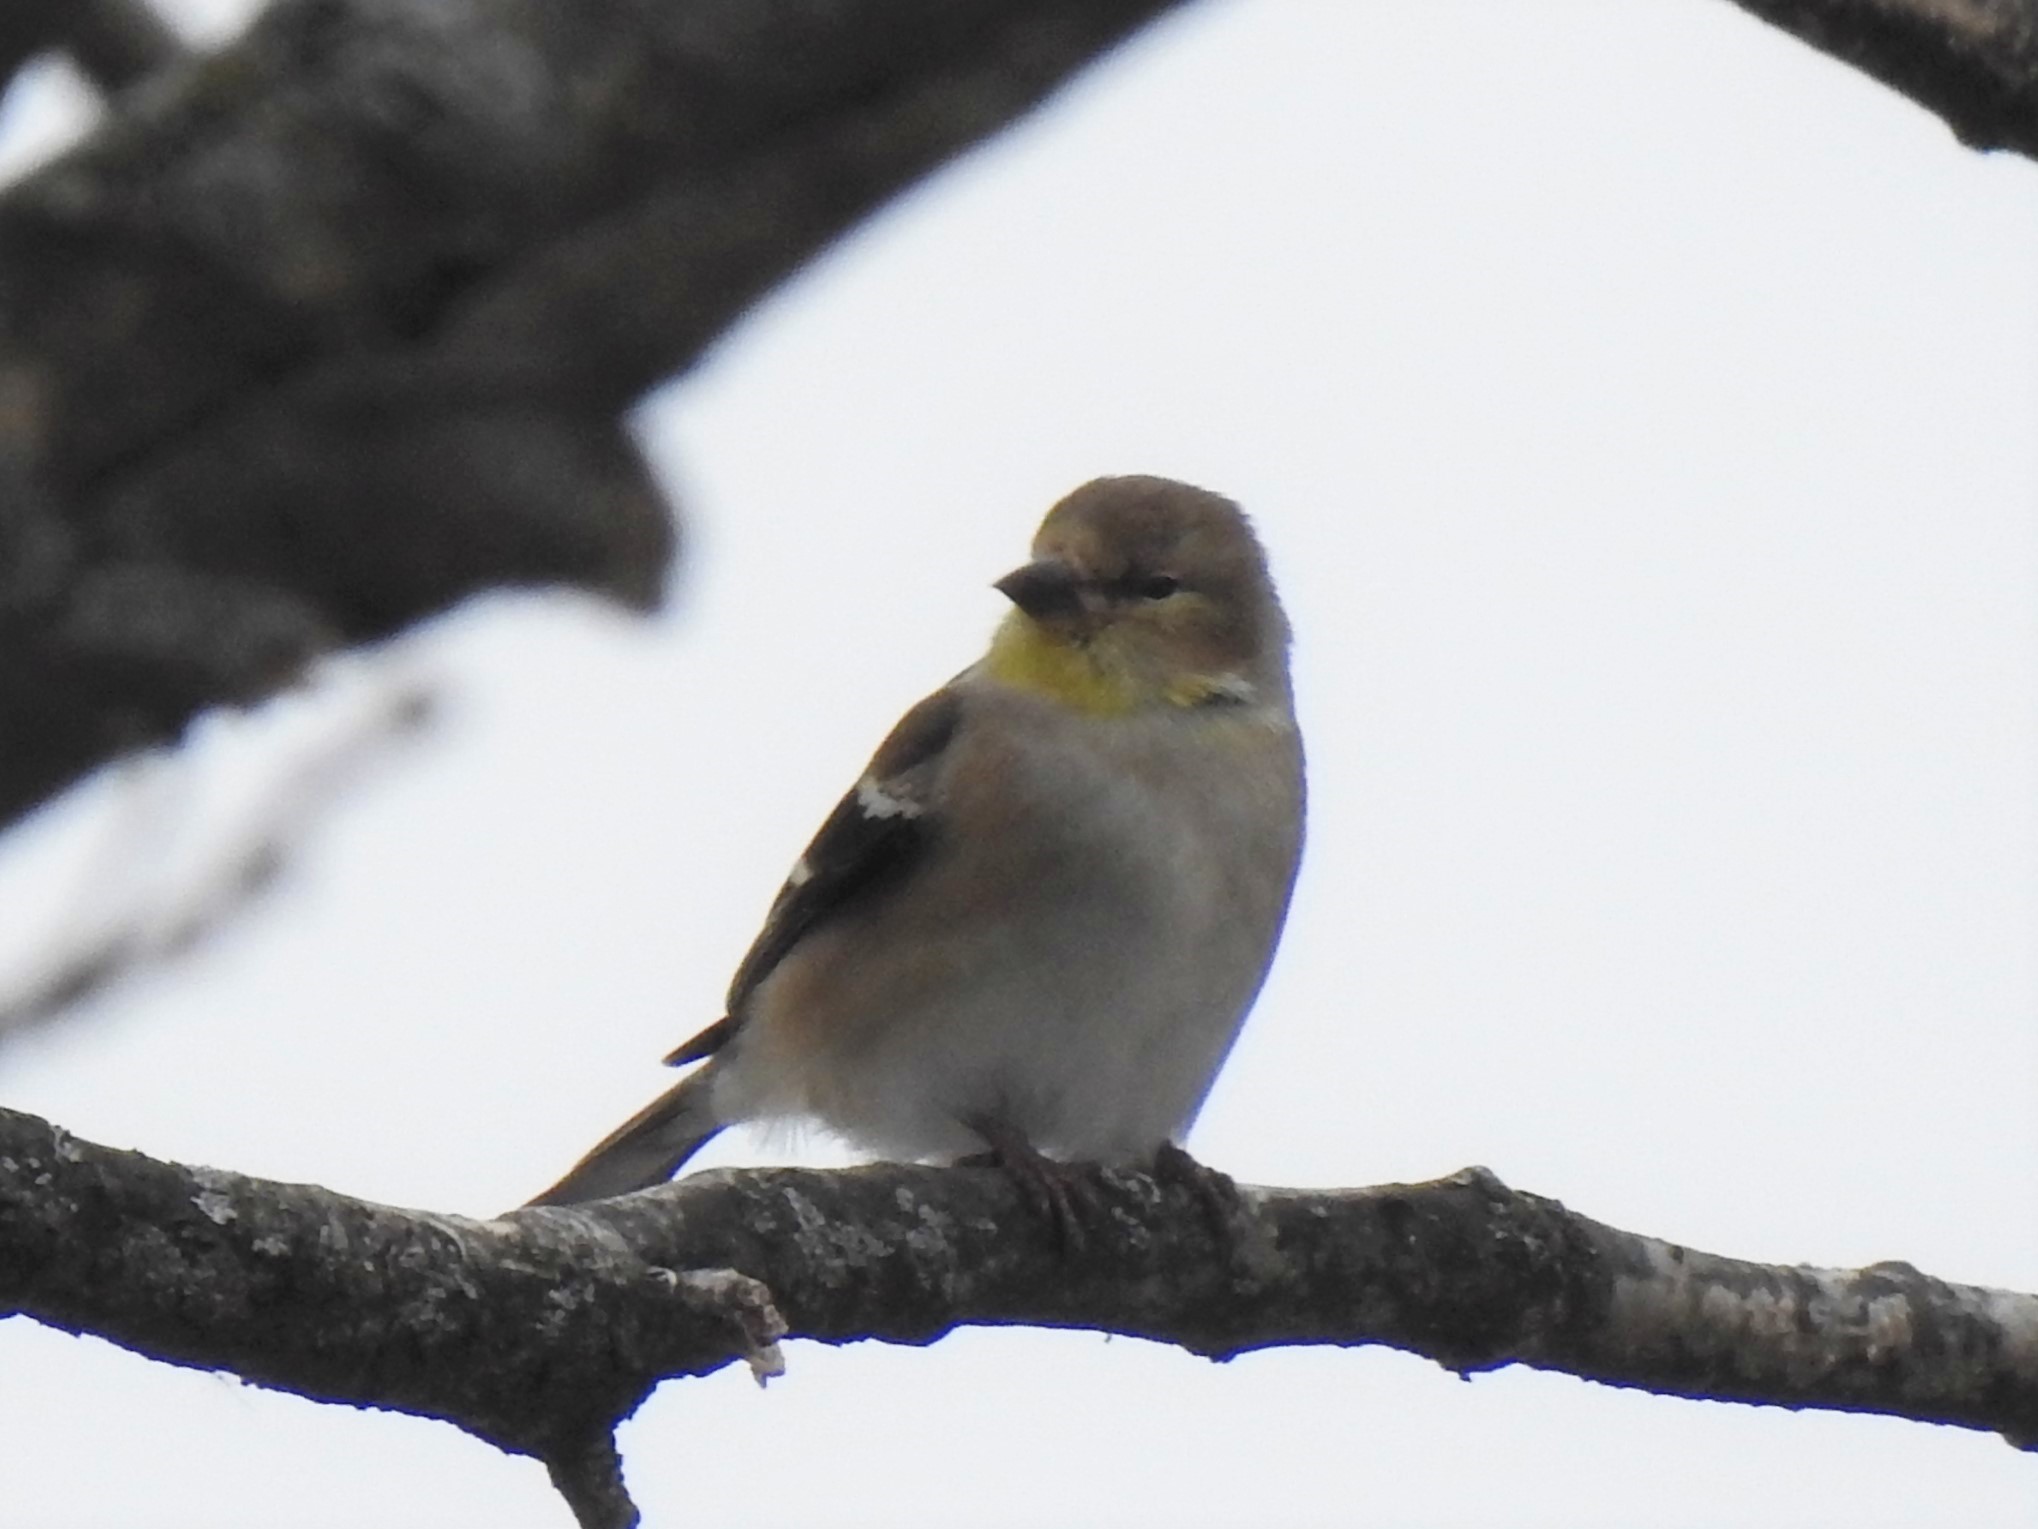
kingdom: Animalia
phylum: Chordata
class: Aves
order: Passeriformes
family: Fringillidae
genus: Spinus
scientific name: Spinus tristis
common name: American goldfinch
